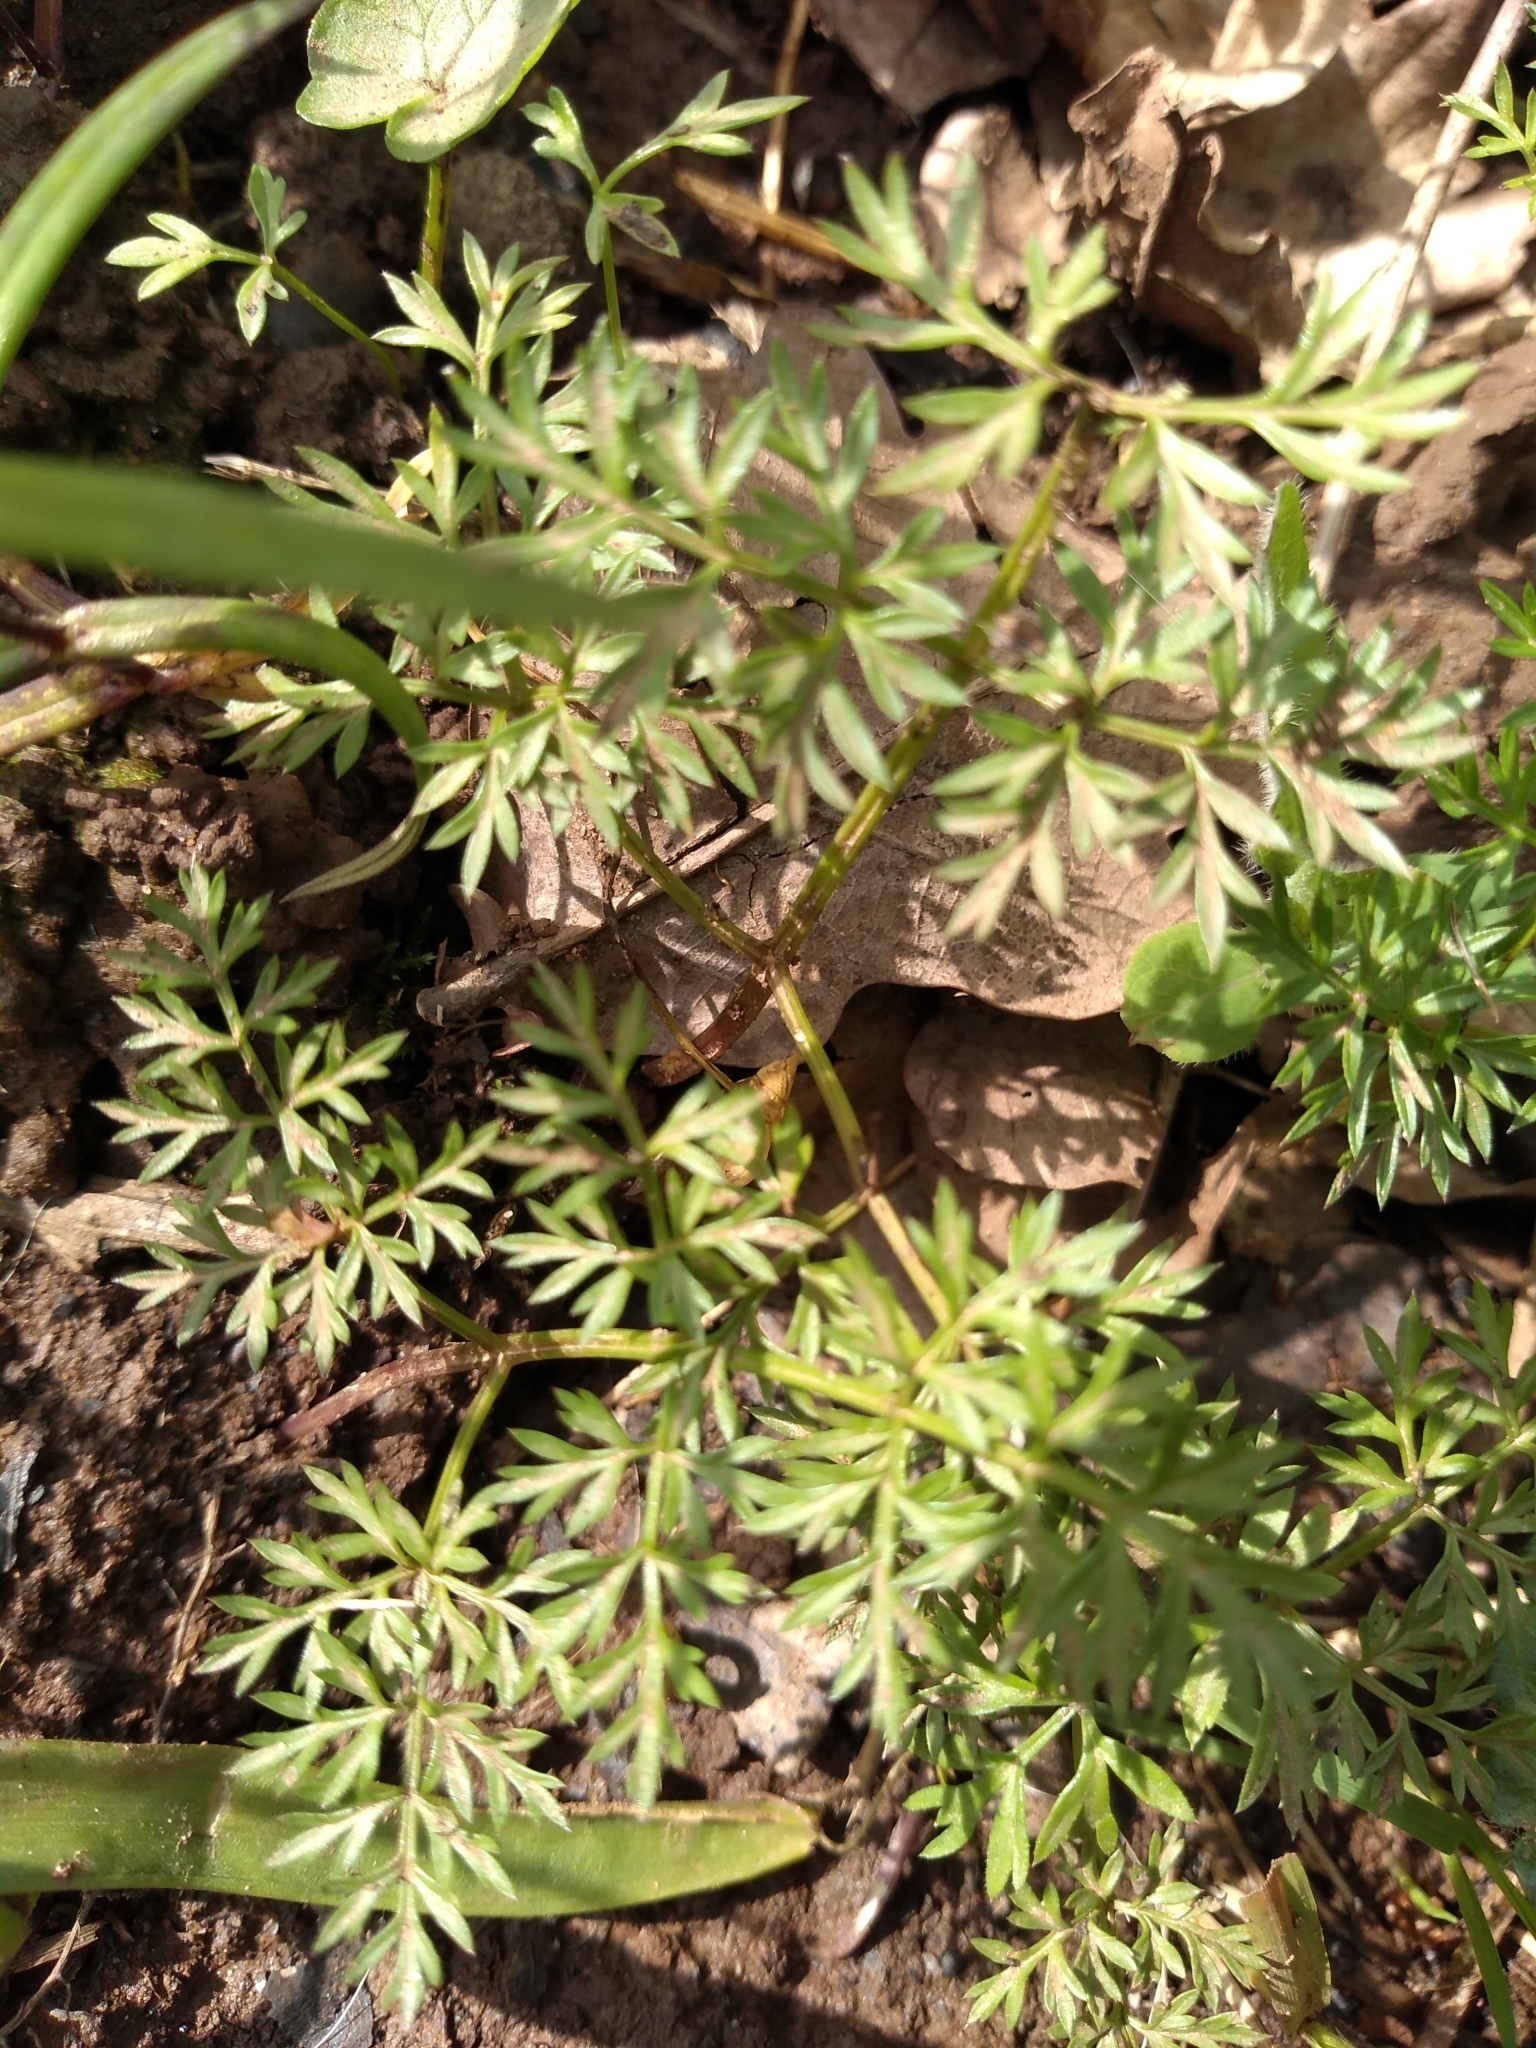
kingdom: Plantae
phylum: Tracheophyta
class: Magnoliopsida
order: Apiales
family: Apiaceae
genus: Conopodium
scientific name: Conopodium majus
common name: Pignut
